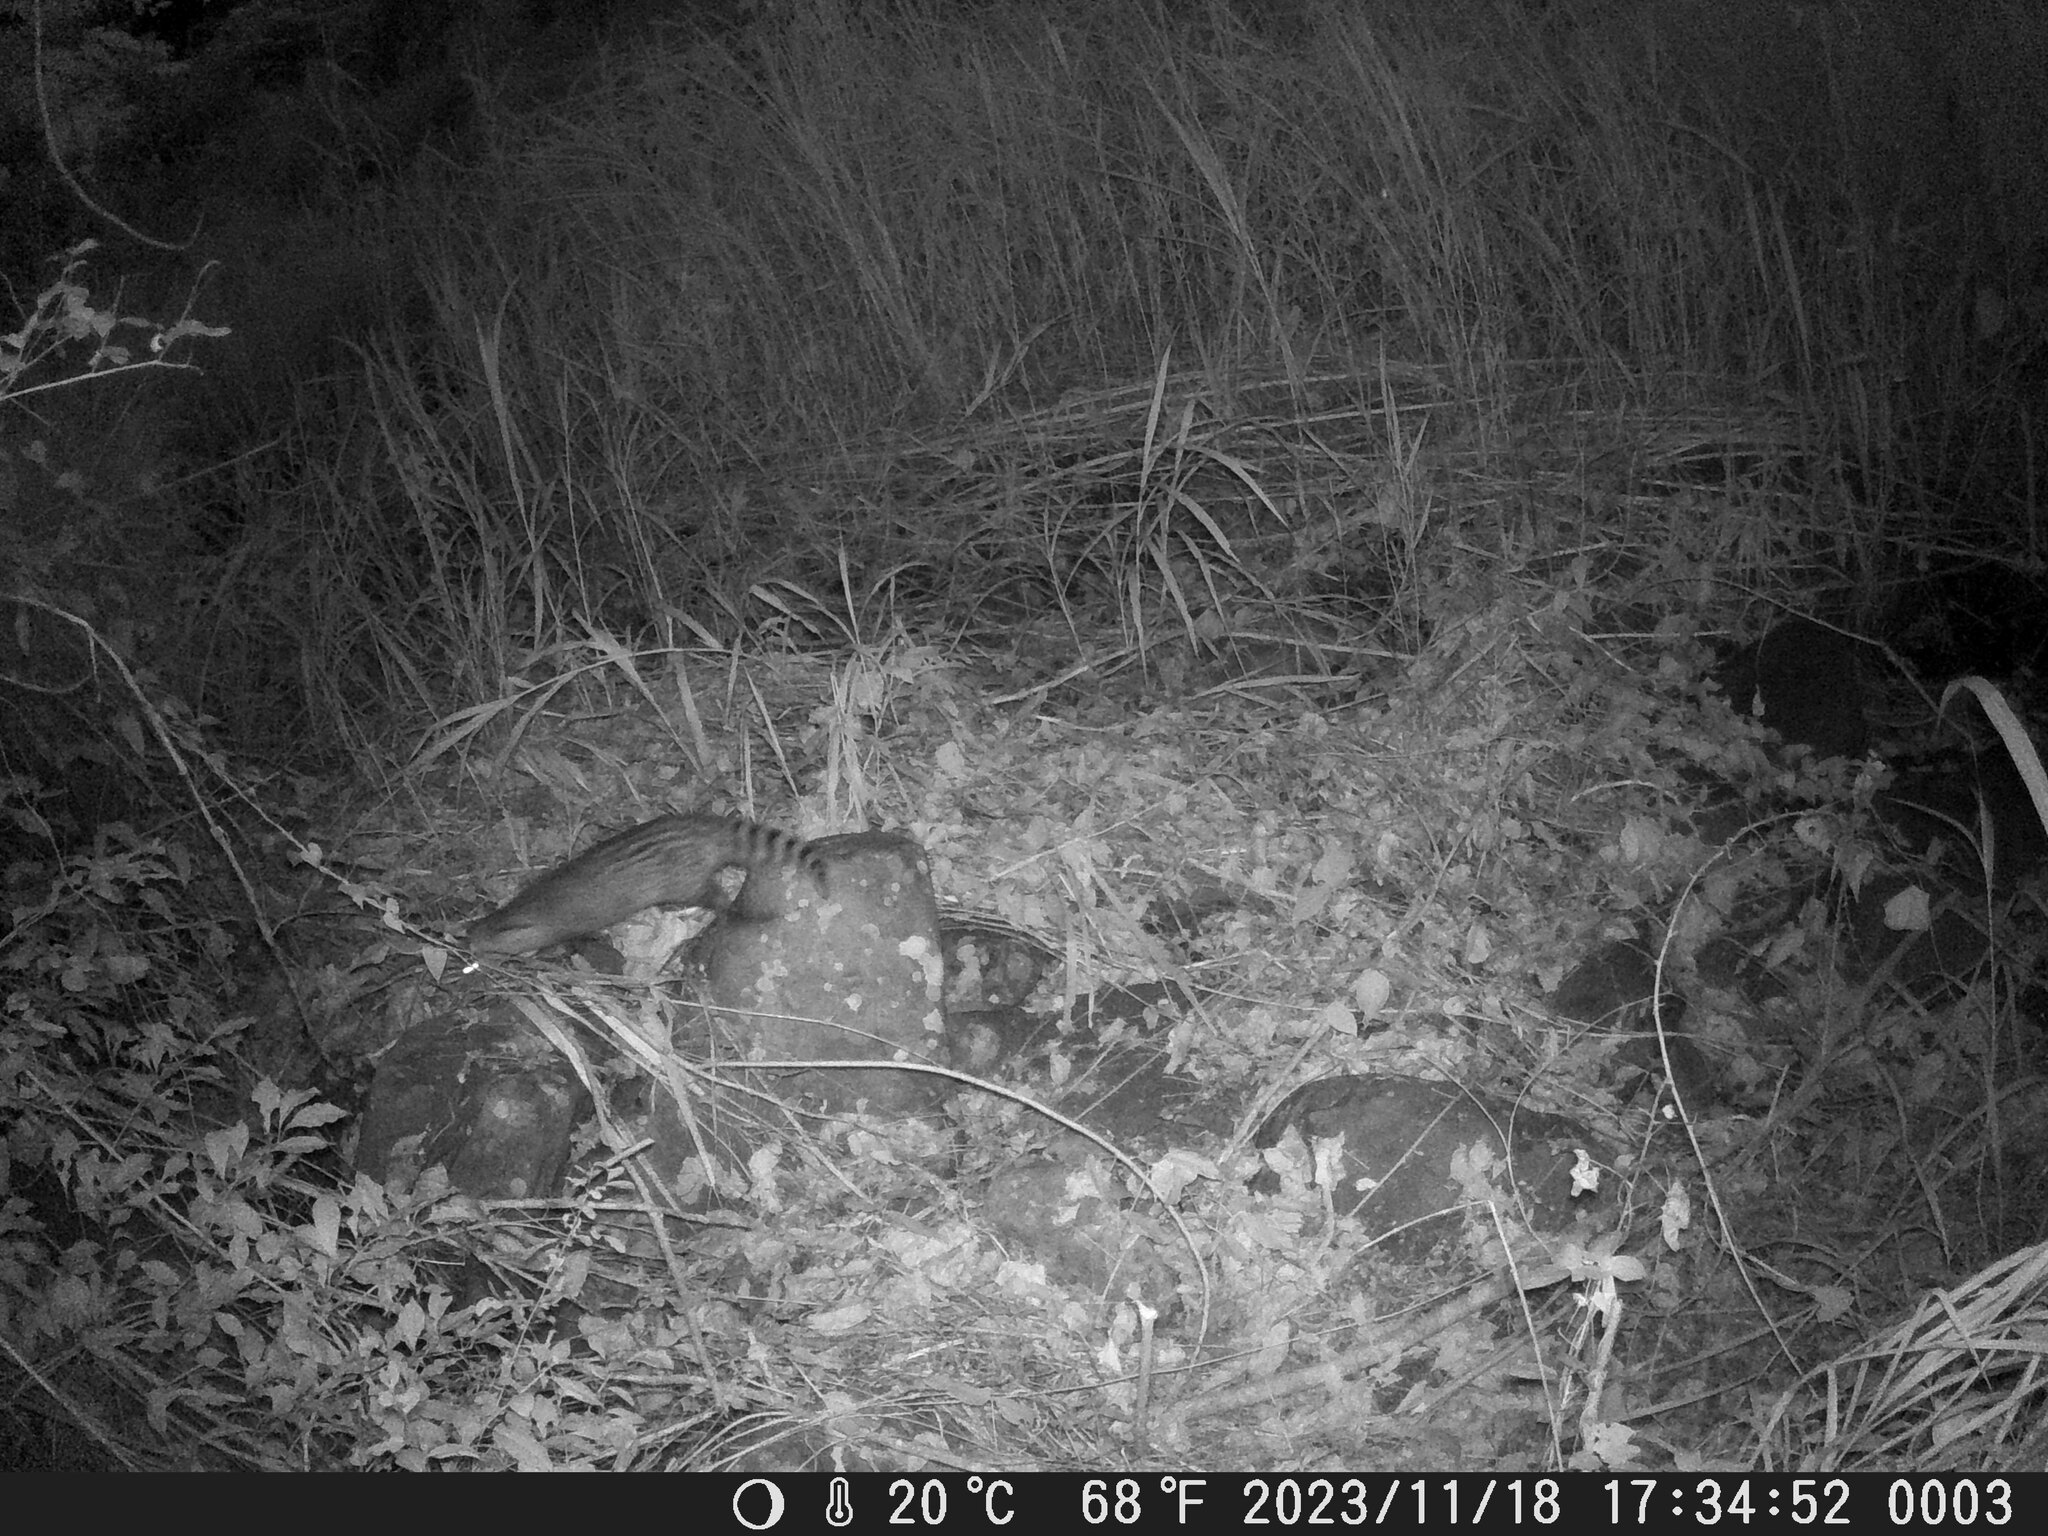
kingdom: Animalia
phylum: Chordata
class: Mammalia
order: Carnivora
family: Viverridae
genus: Viverricula
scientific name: Viverricula indica
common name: Small indian civet
